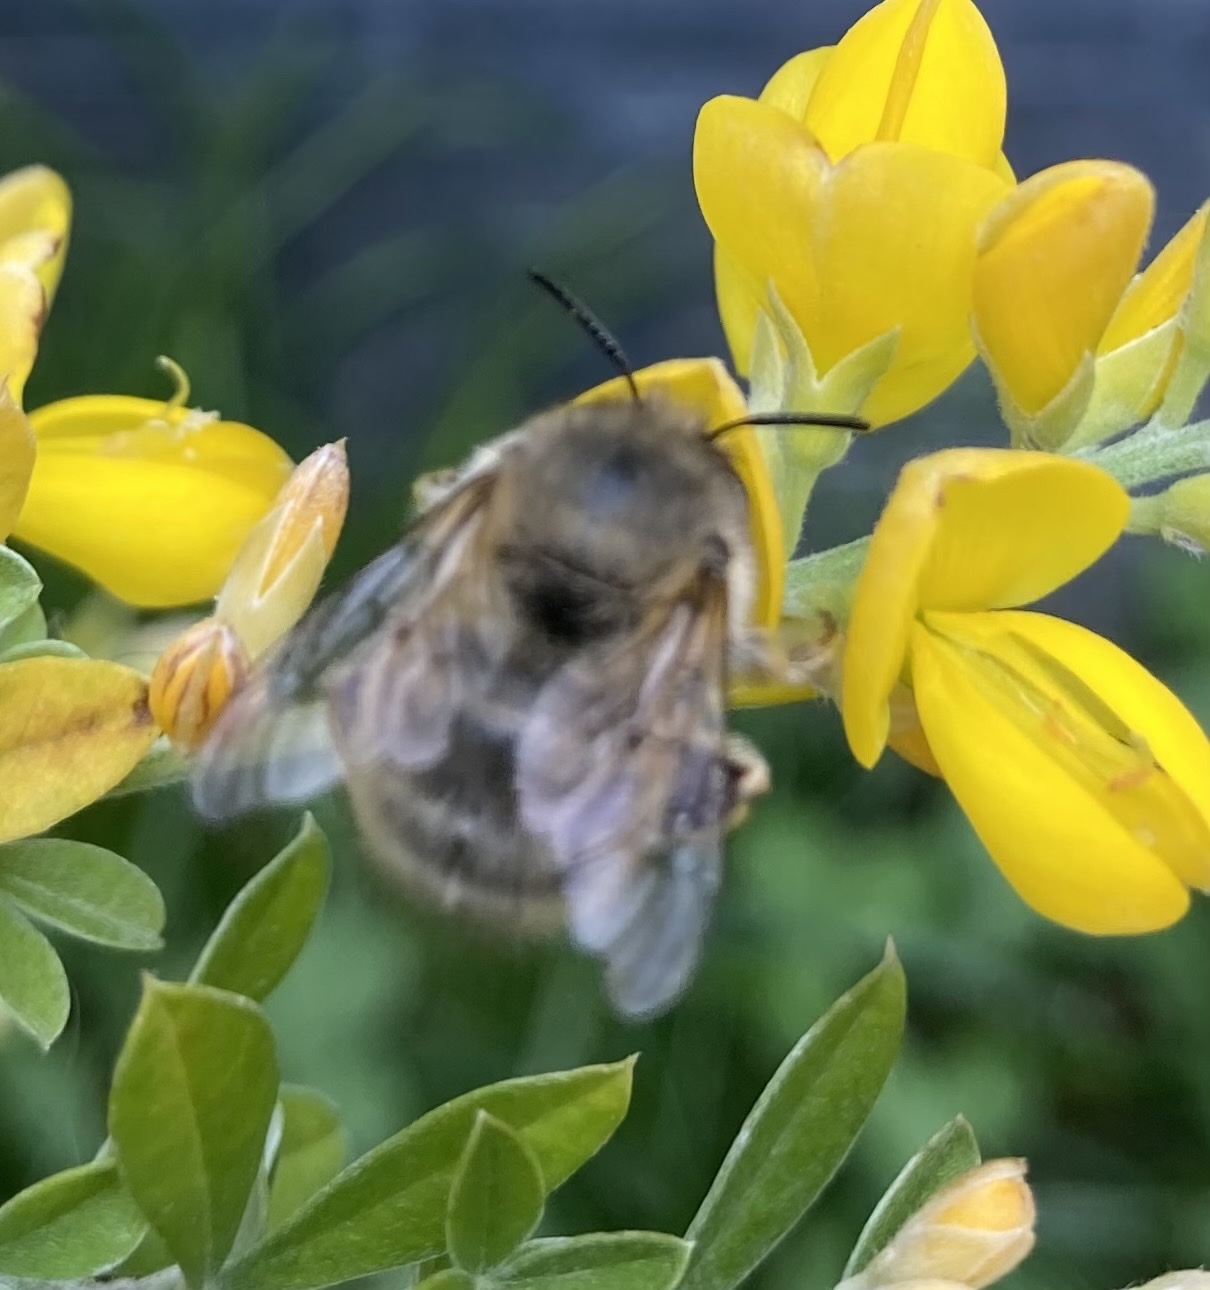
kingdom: Animalia
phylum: Arthropoda
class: Insecta
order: Hymenoptera
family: Apidae
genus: Anthophora
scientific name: Anthophora plumipes
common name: Hairy-footed flower bee
